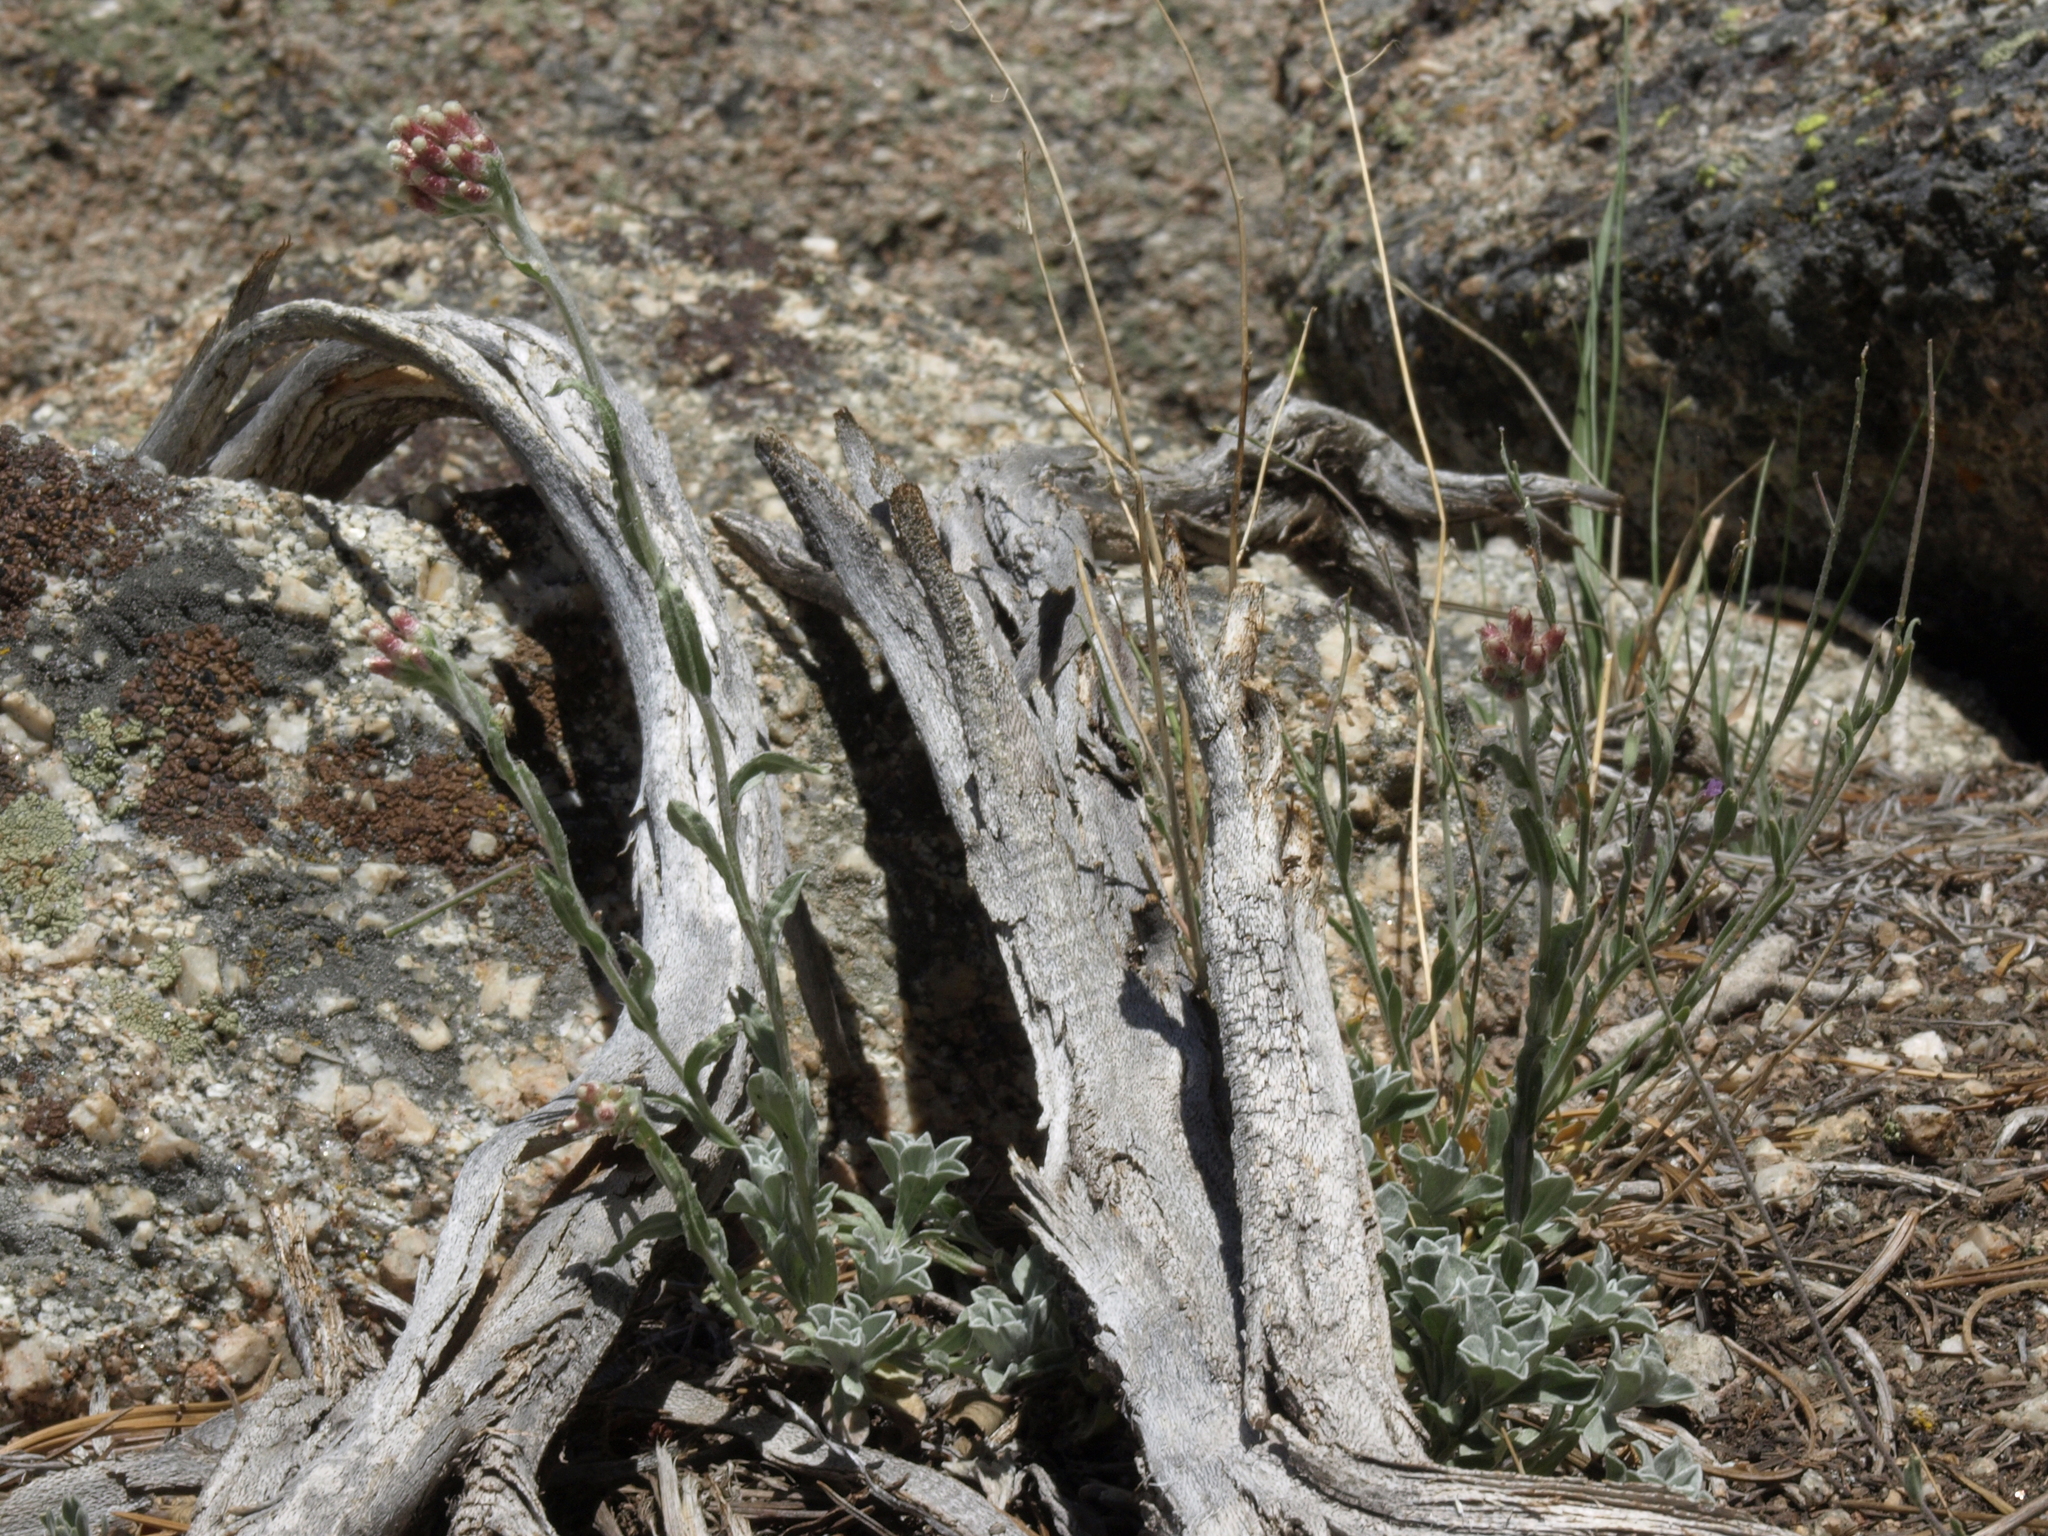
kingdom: Plantae
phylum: Tracheophyta
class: Magnoliopsida
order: Asterales
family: Asteraceae
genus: Antennaria
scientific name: Antennaria rosea
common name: Rosy pussytoes
